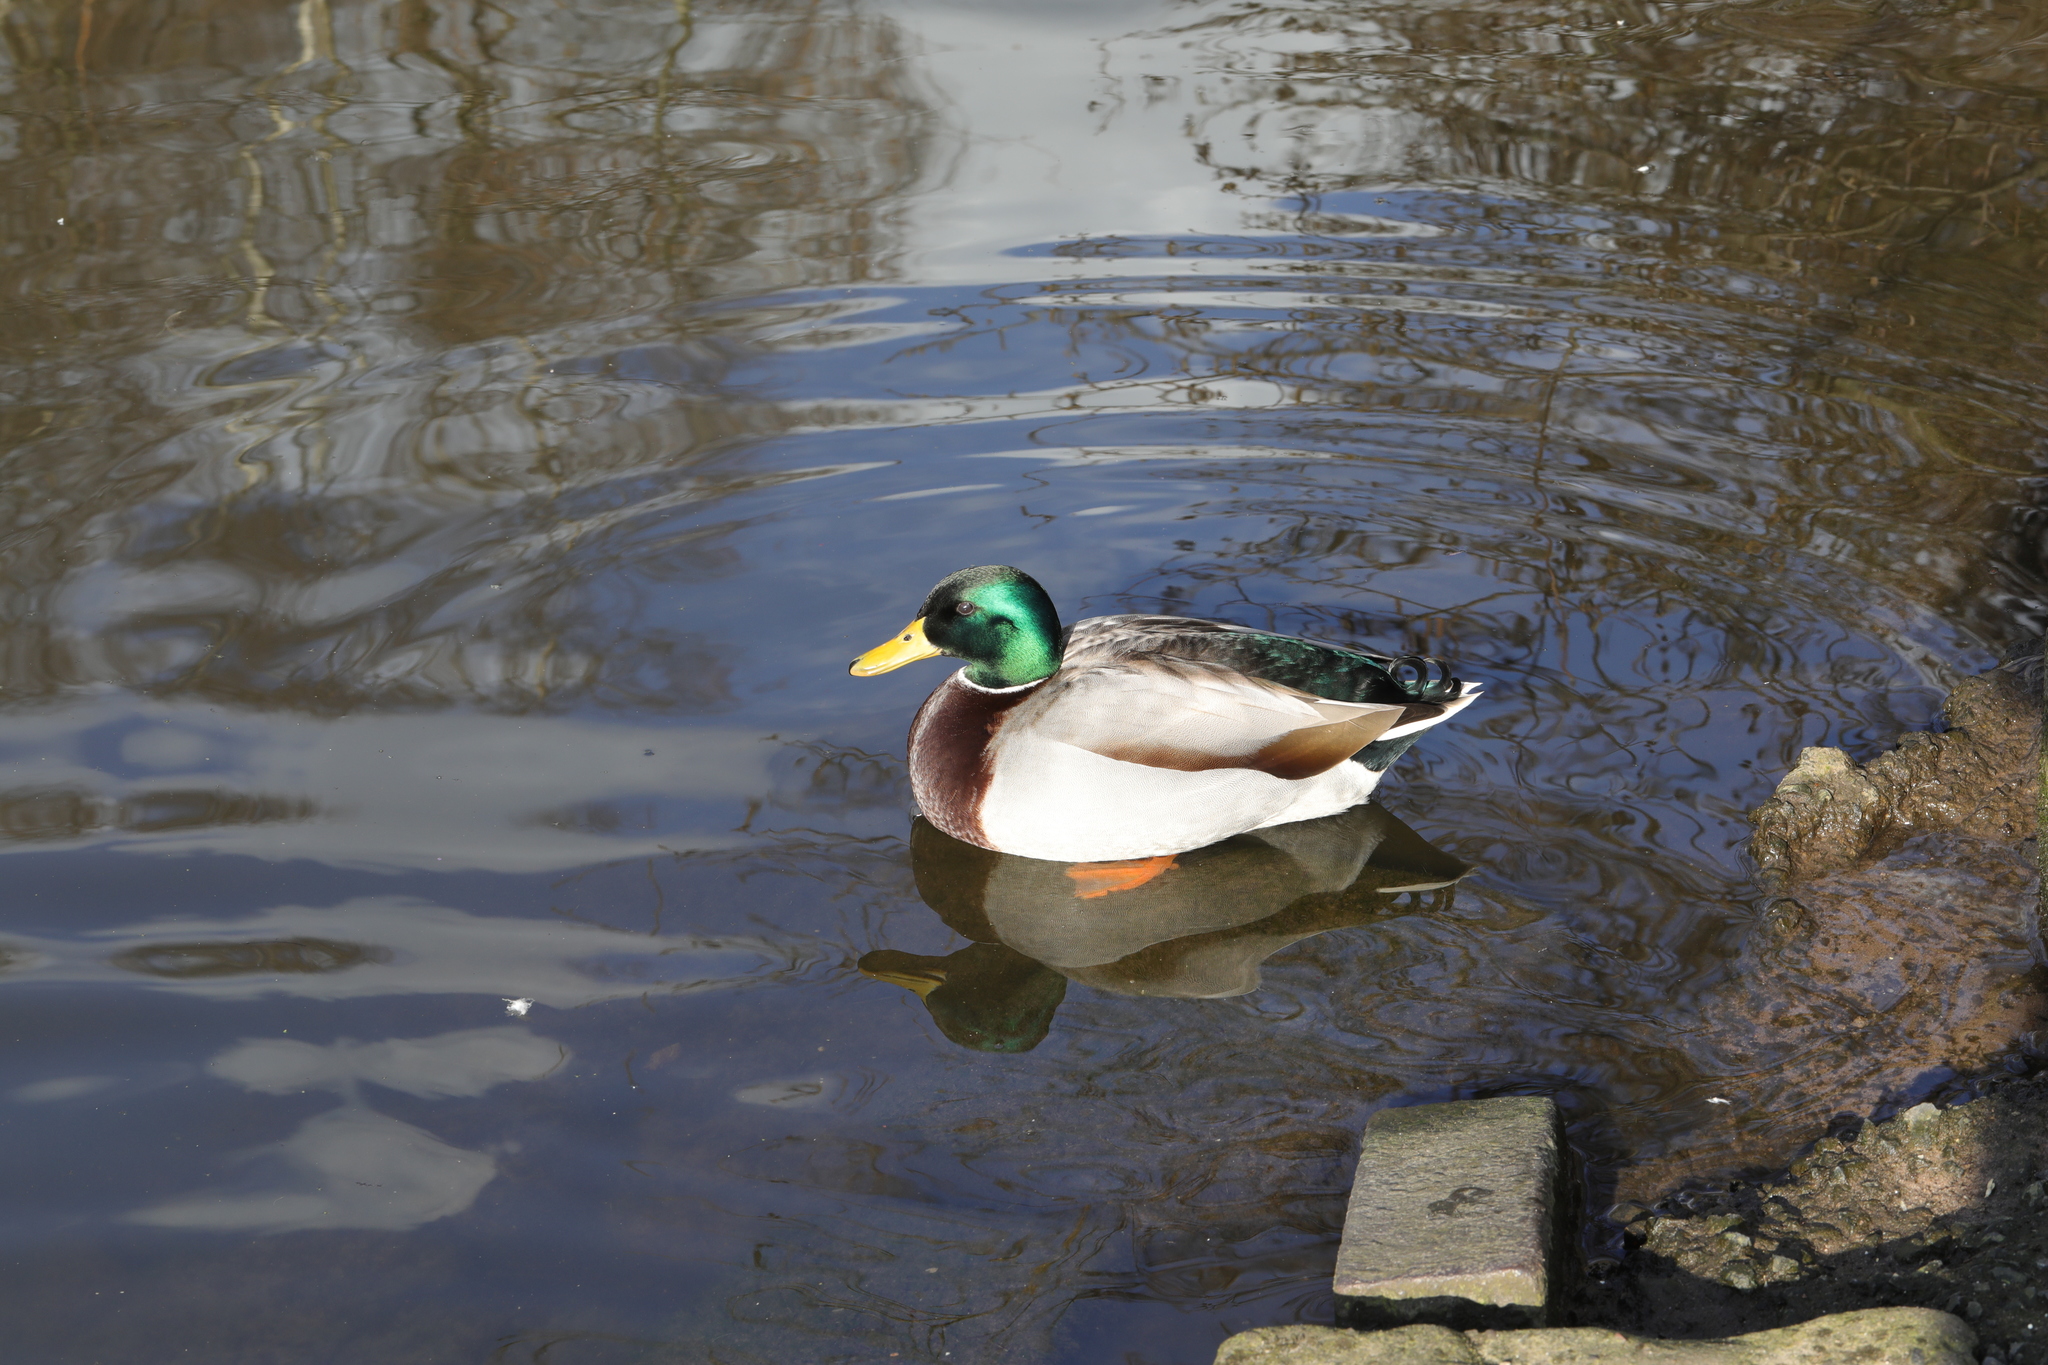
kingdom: Animalia
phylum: Chordata
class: Aves
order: Anseriformes
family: Anatidae
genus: Anas
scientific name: Anas platyrhynchos
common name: Mallard
